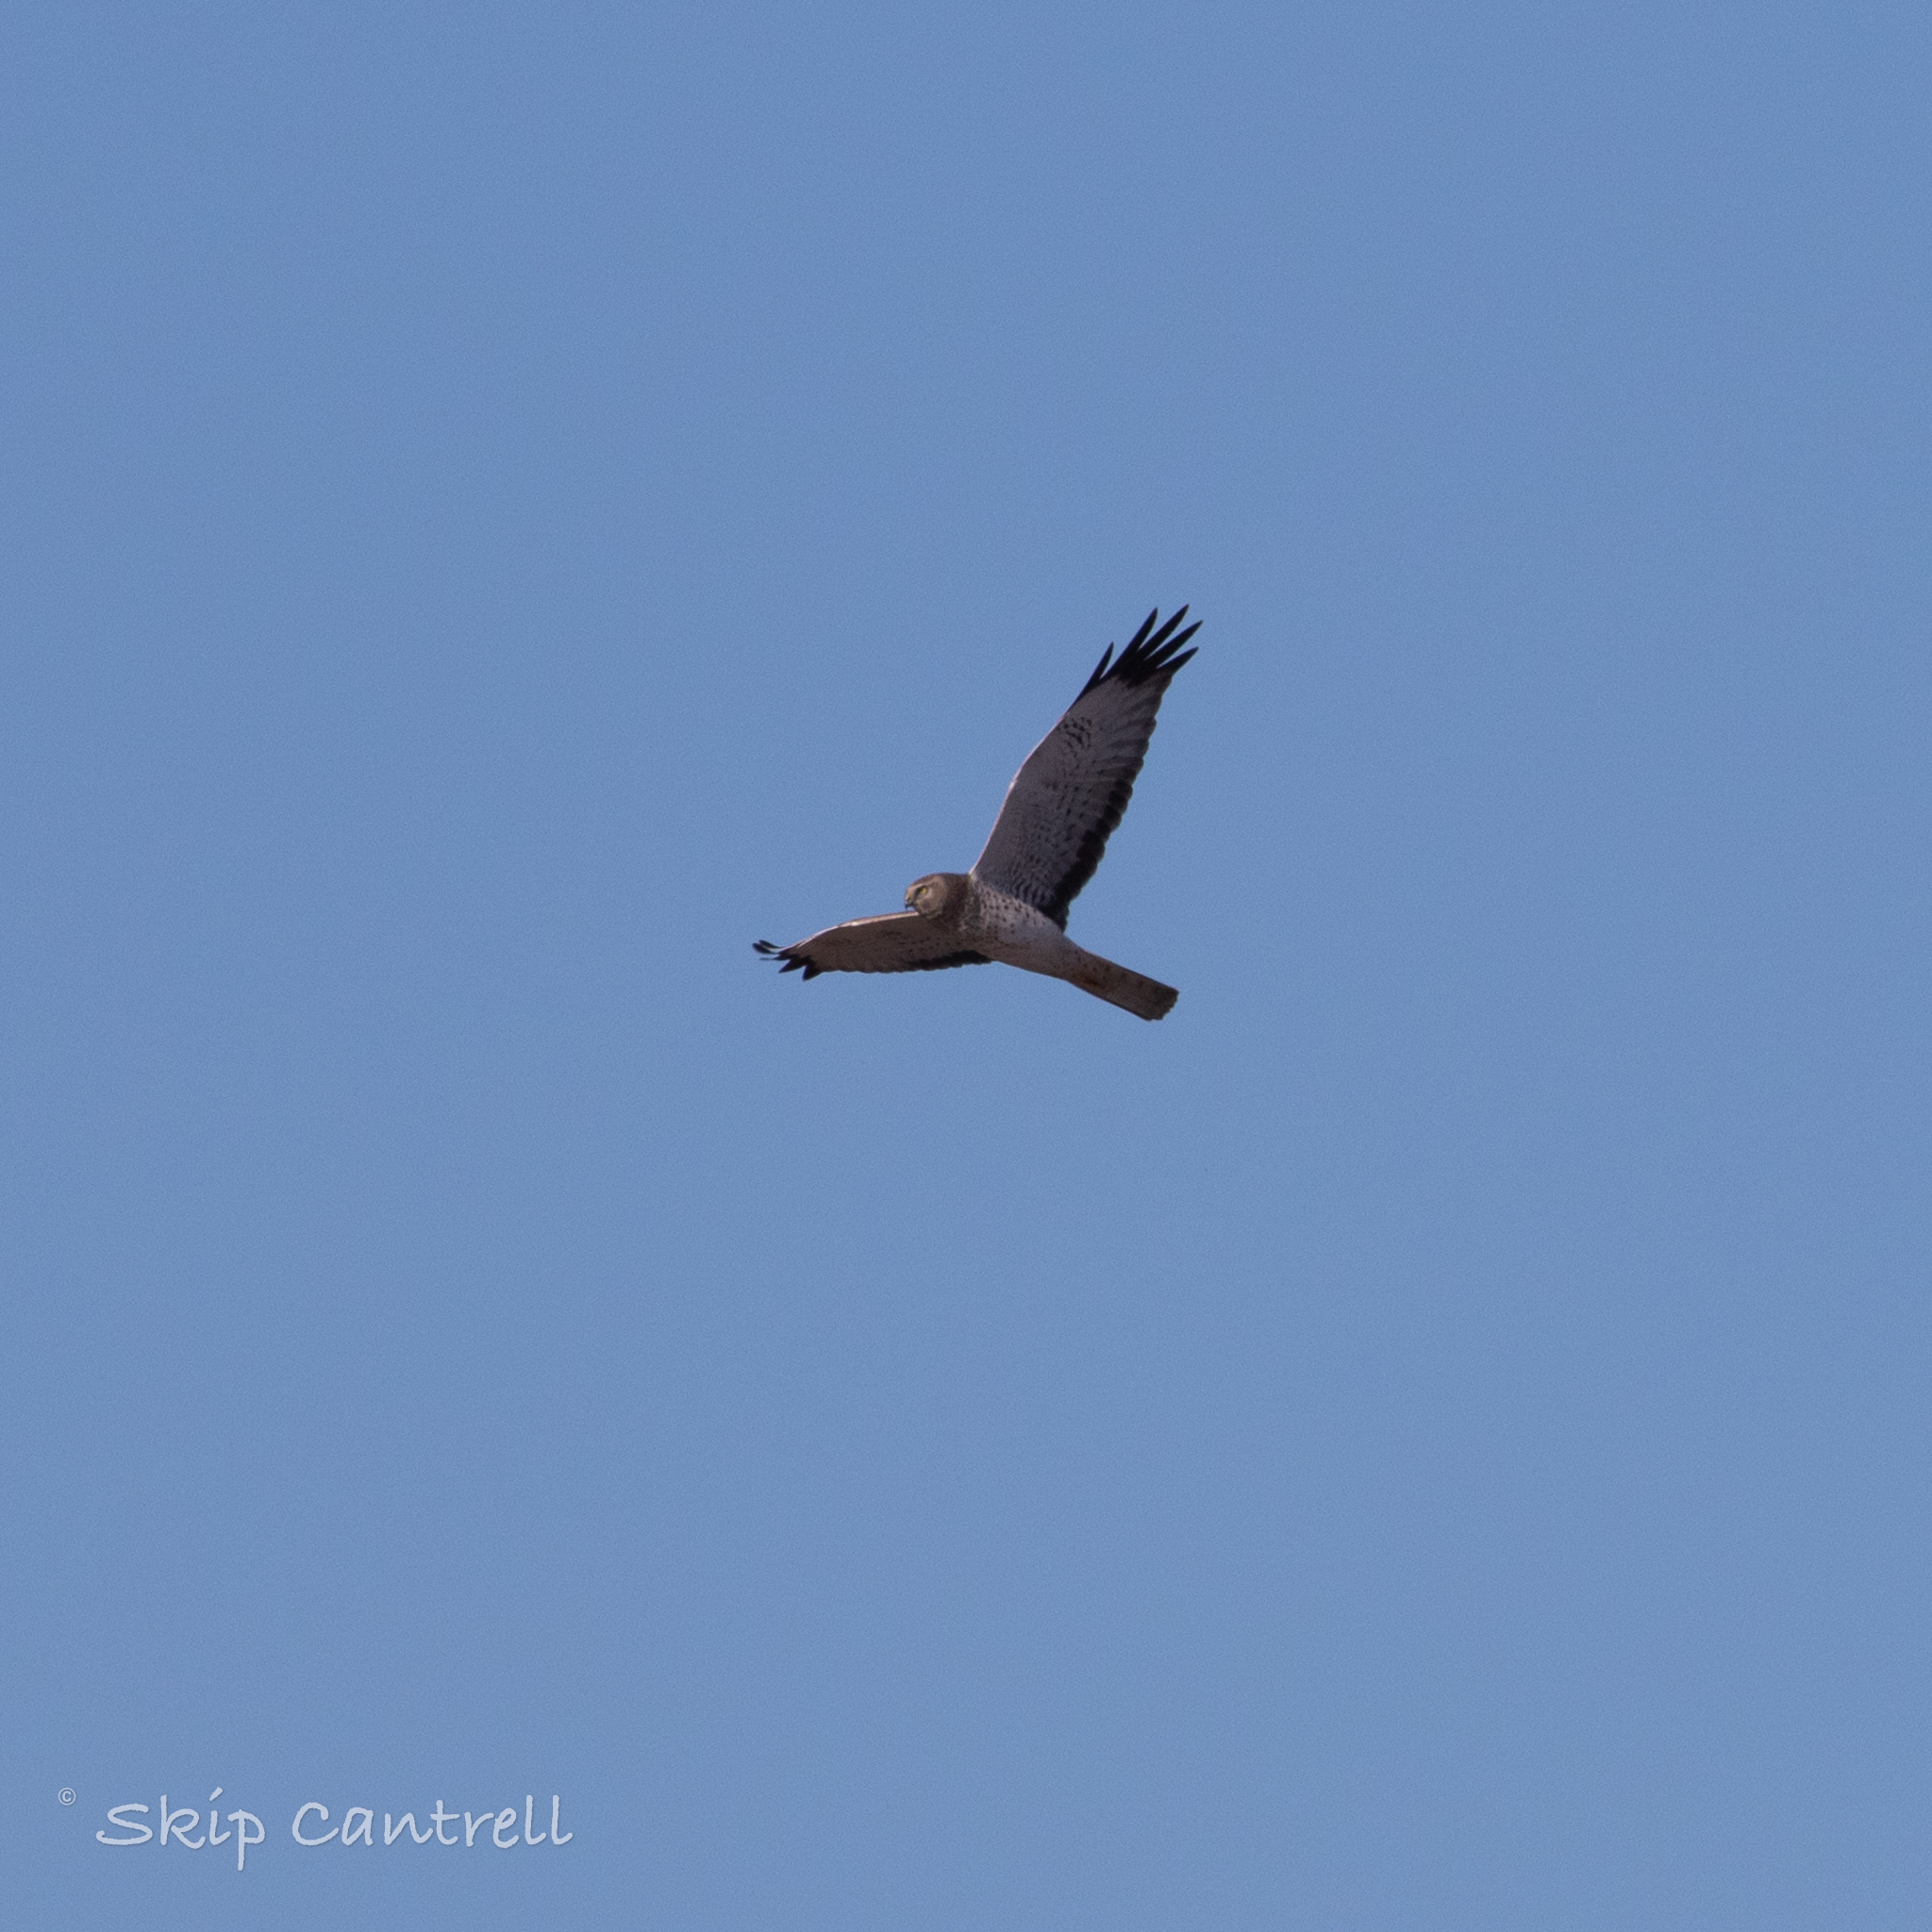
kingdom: Animalia
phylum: Chordata
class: Aves
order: Accipitriformes
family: Accipitridae
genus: Circus
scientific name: Circus cyaneus
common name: Hen harrier
